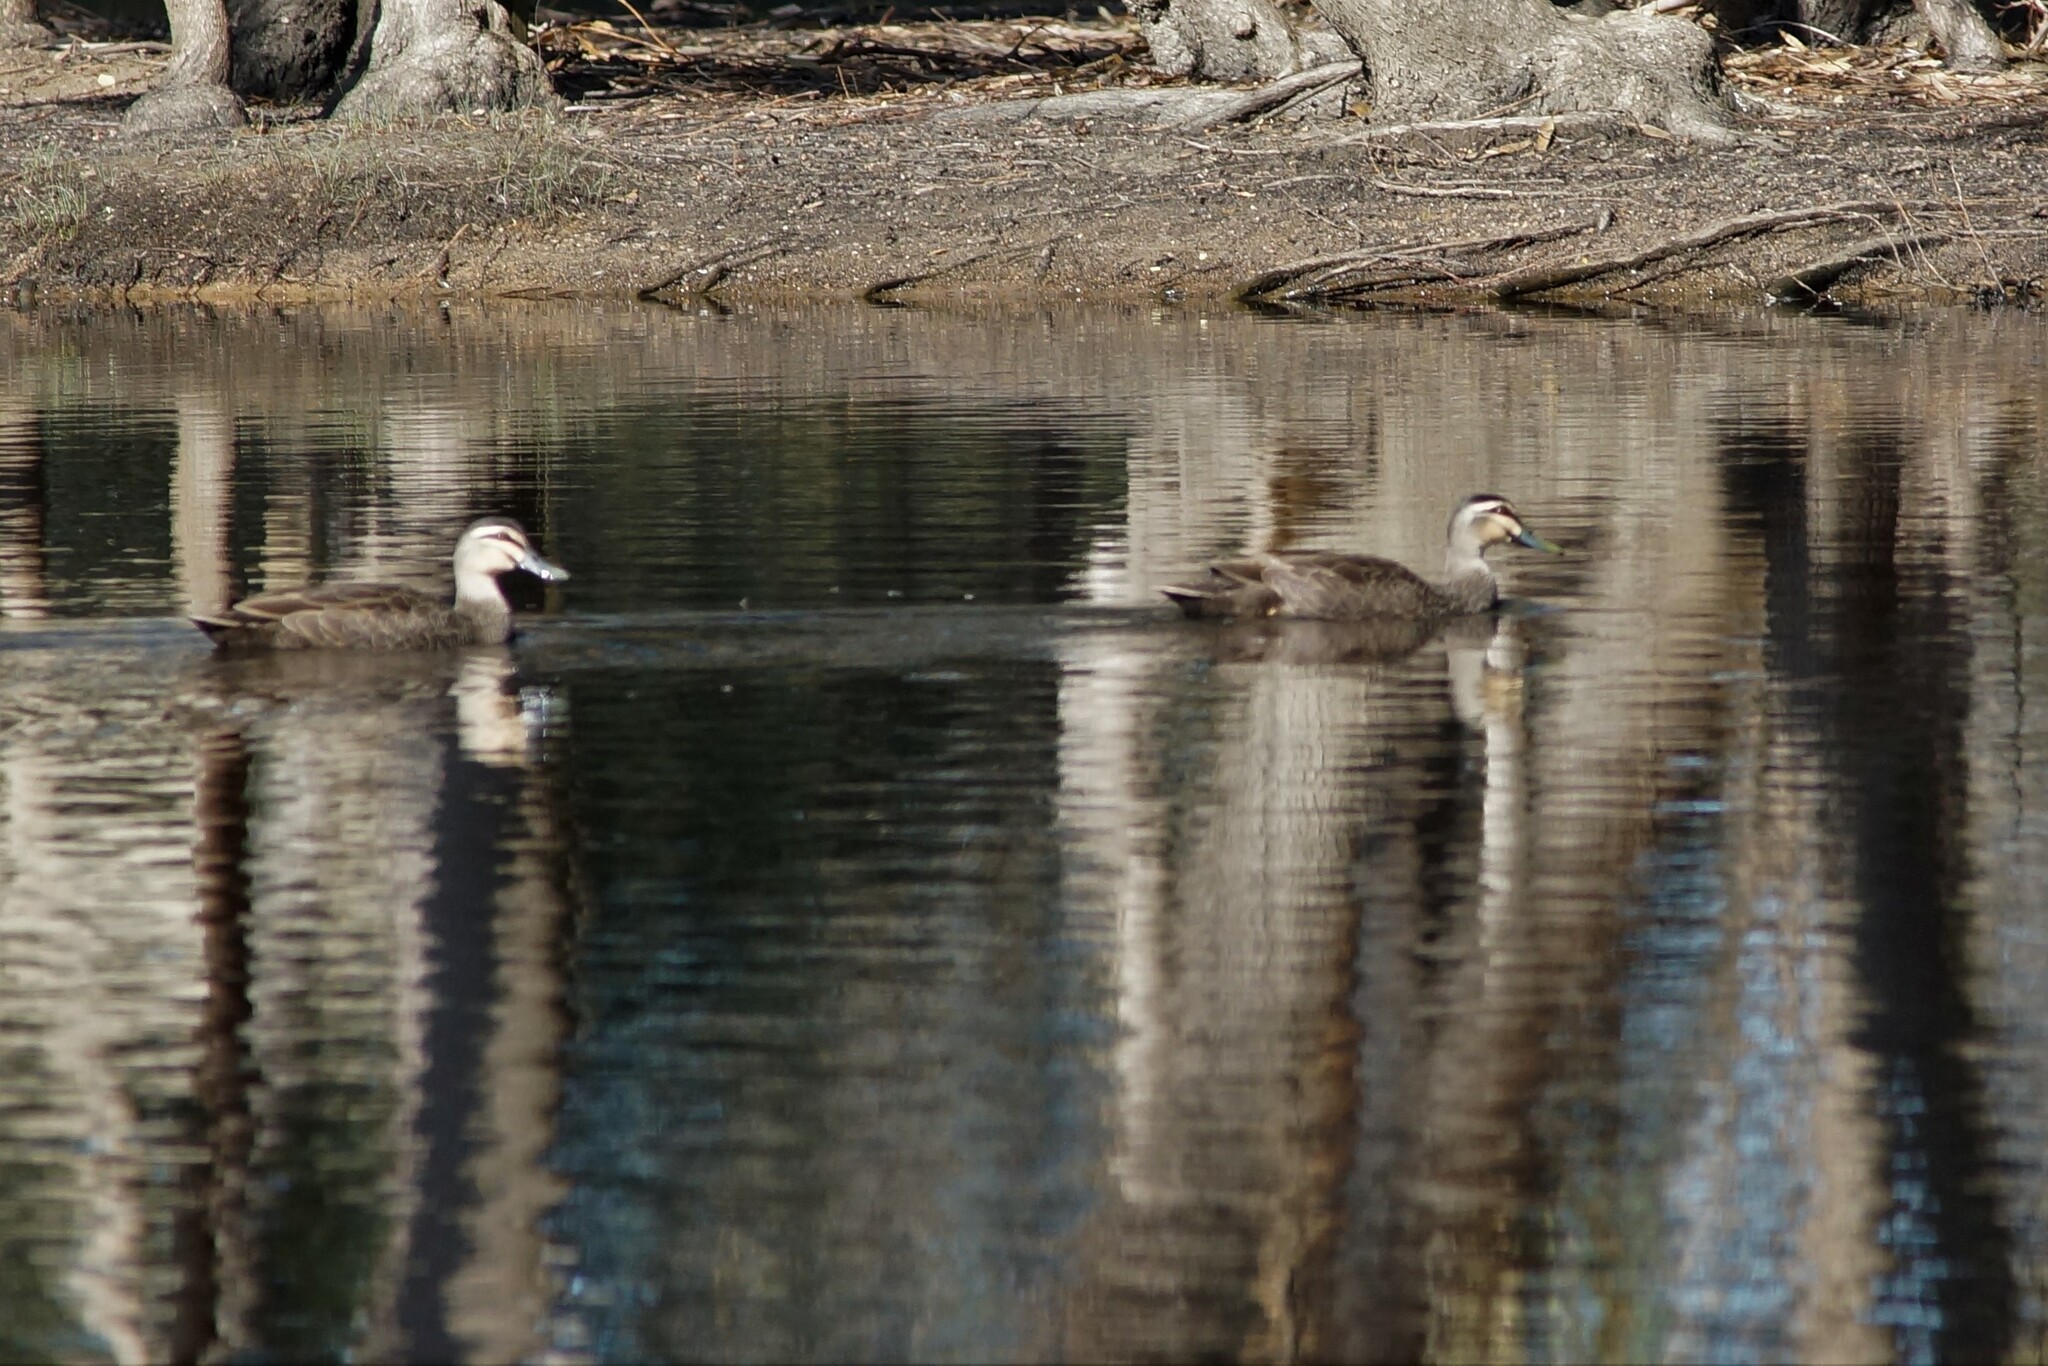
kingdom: Animalia
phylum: Chordata
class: Aves
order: Anseriformes
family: Anatidae
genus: Anas
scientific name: Anas superciliosa
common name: Pacific black duck
